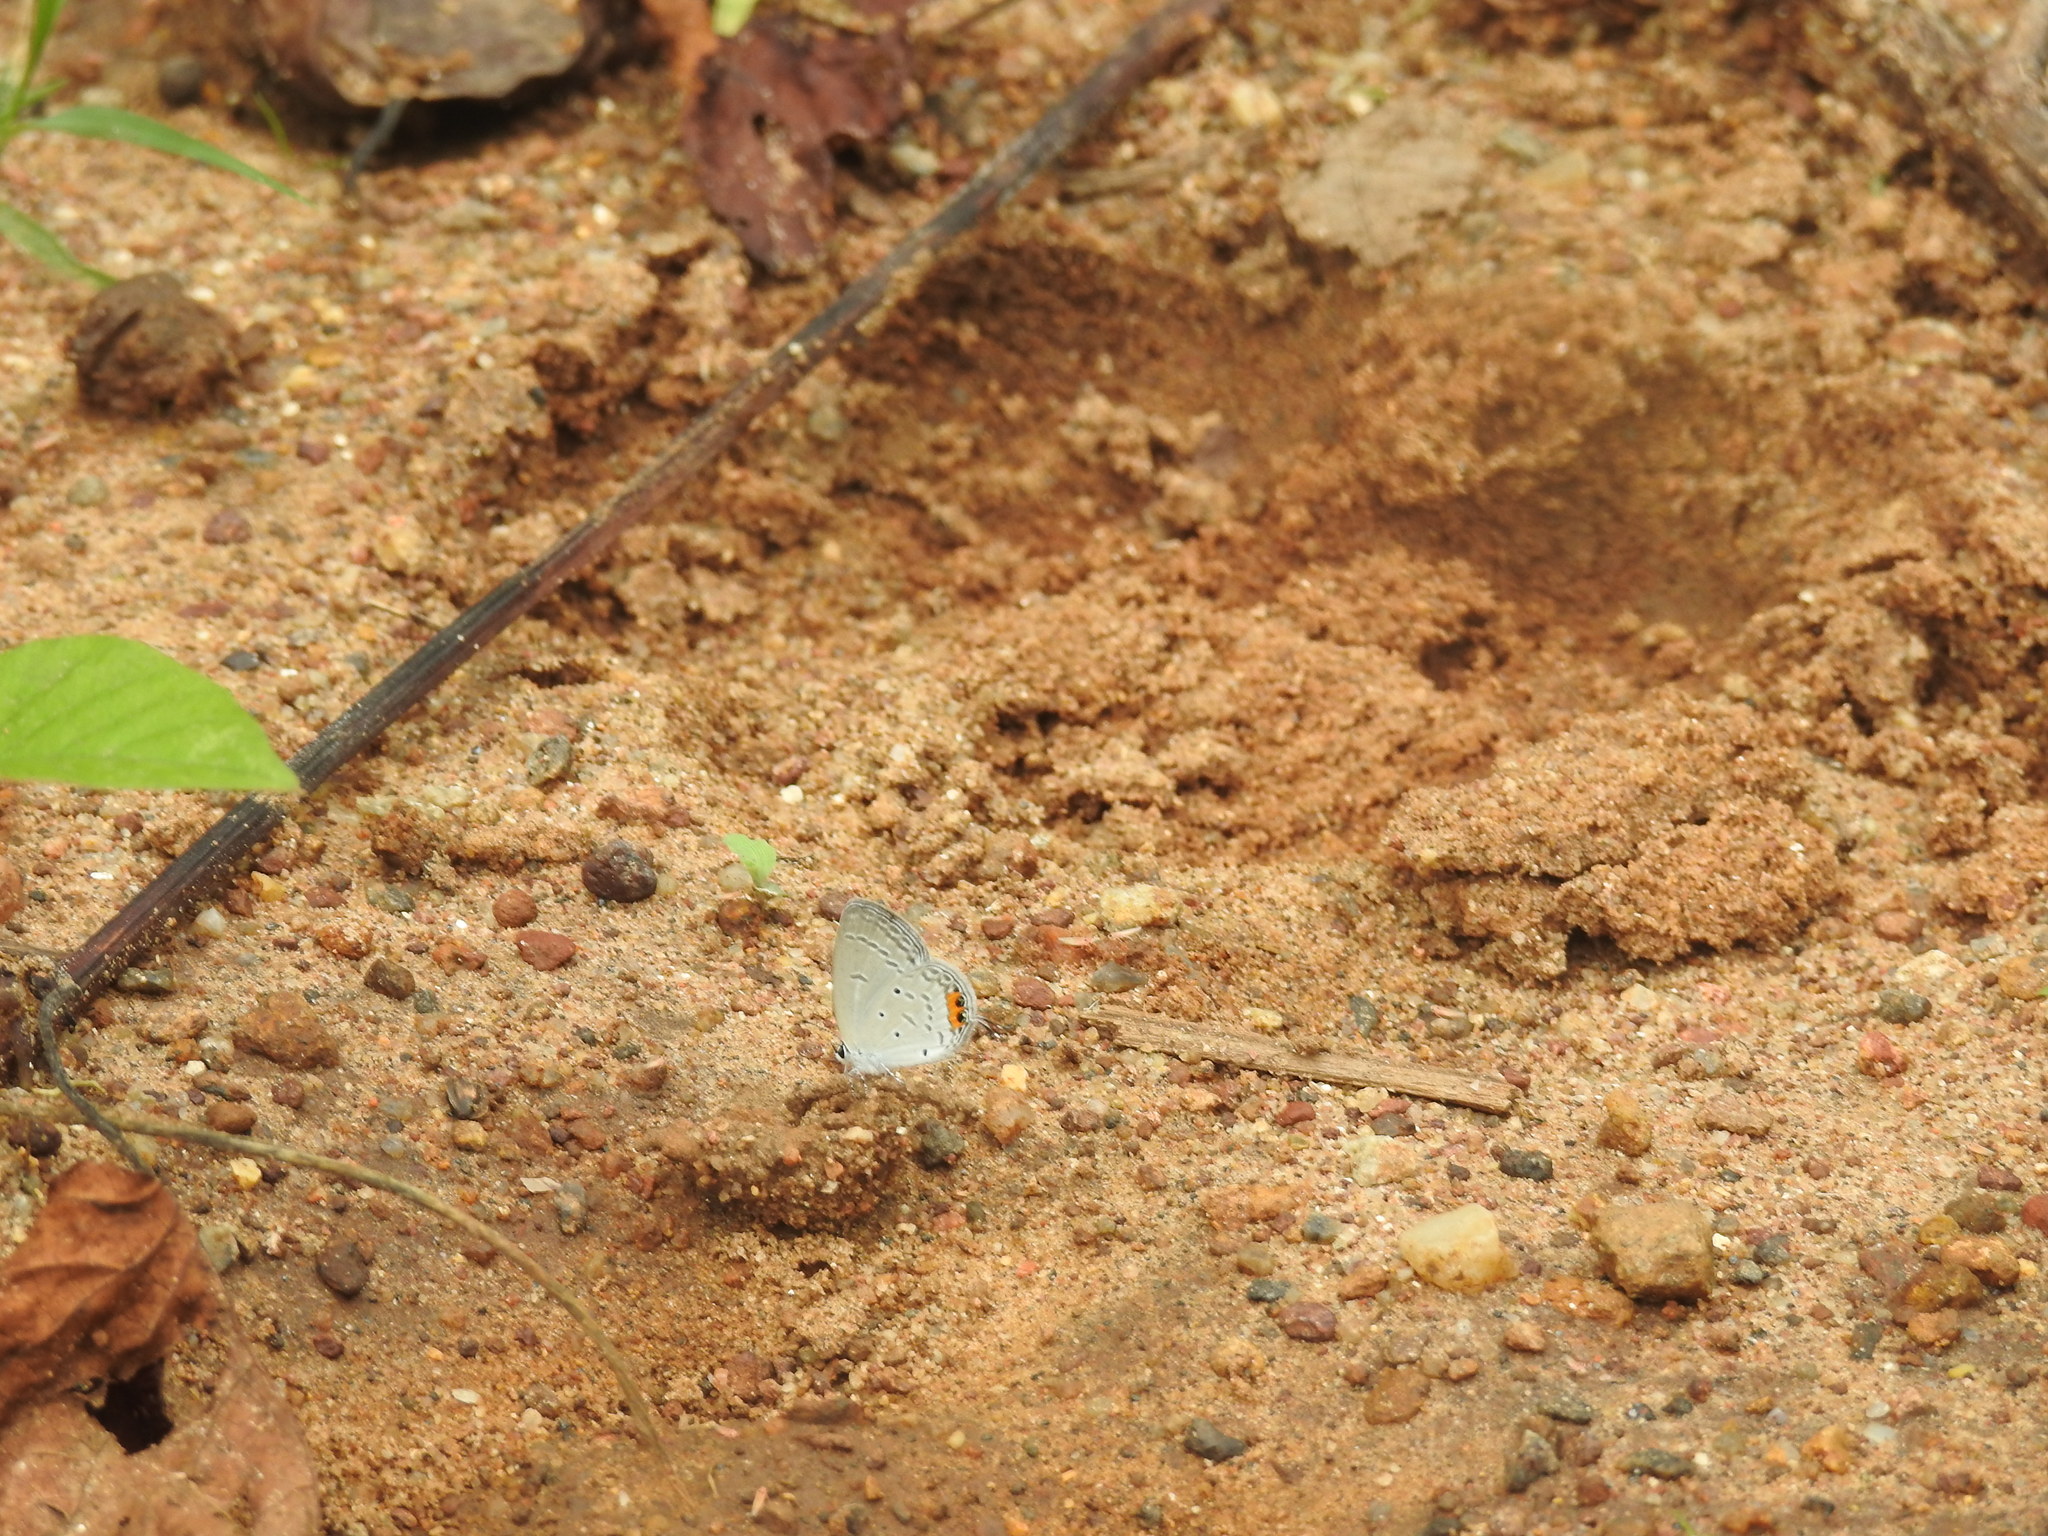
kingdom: Animalia
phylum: Arthropoda
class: Insecta
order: Lepidoptera
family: Lycaenidae
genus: Everes
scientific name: Everes lacturnus
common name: Orange-tipped pea-blue
